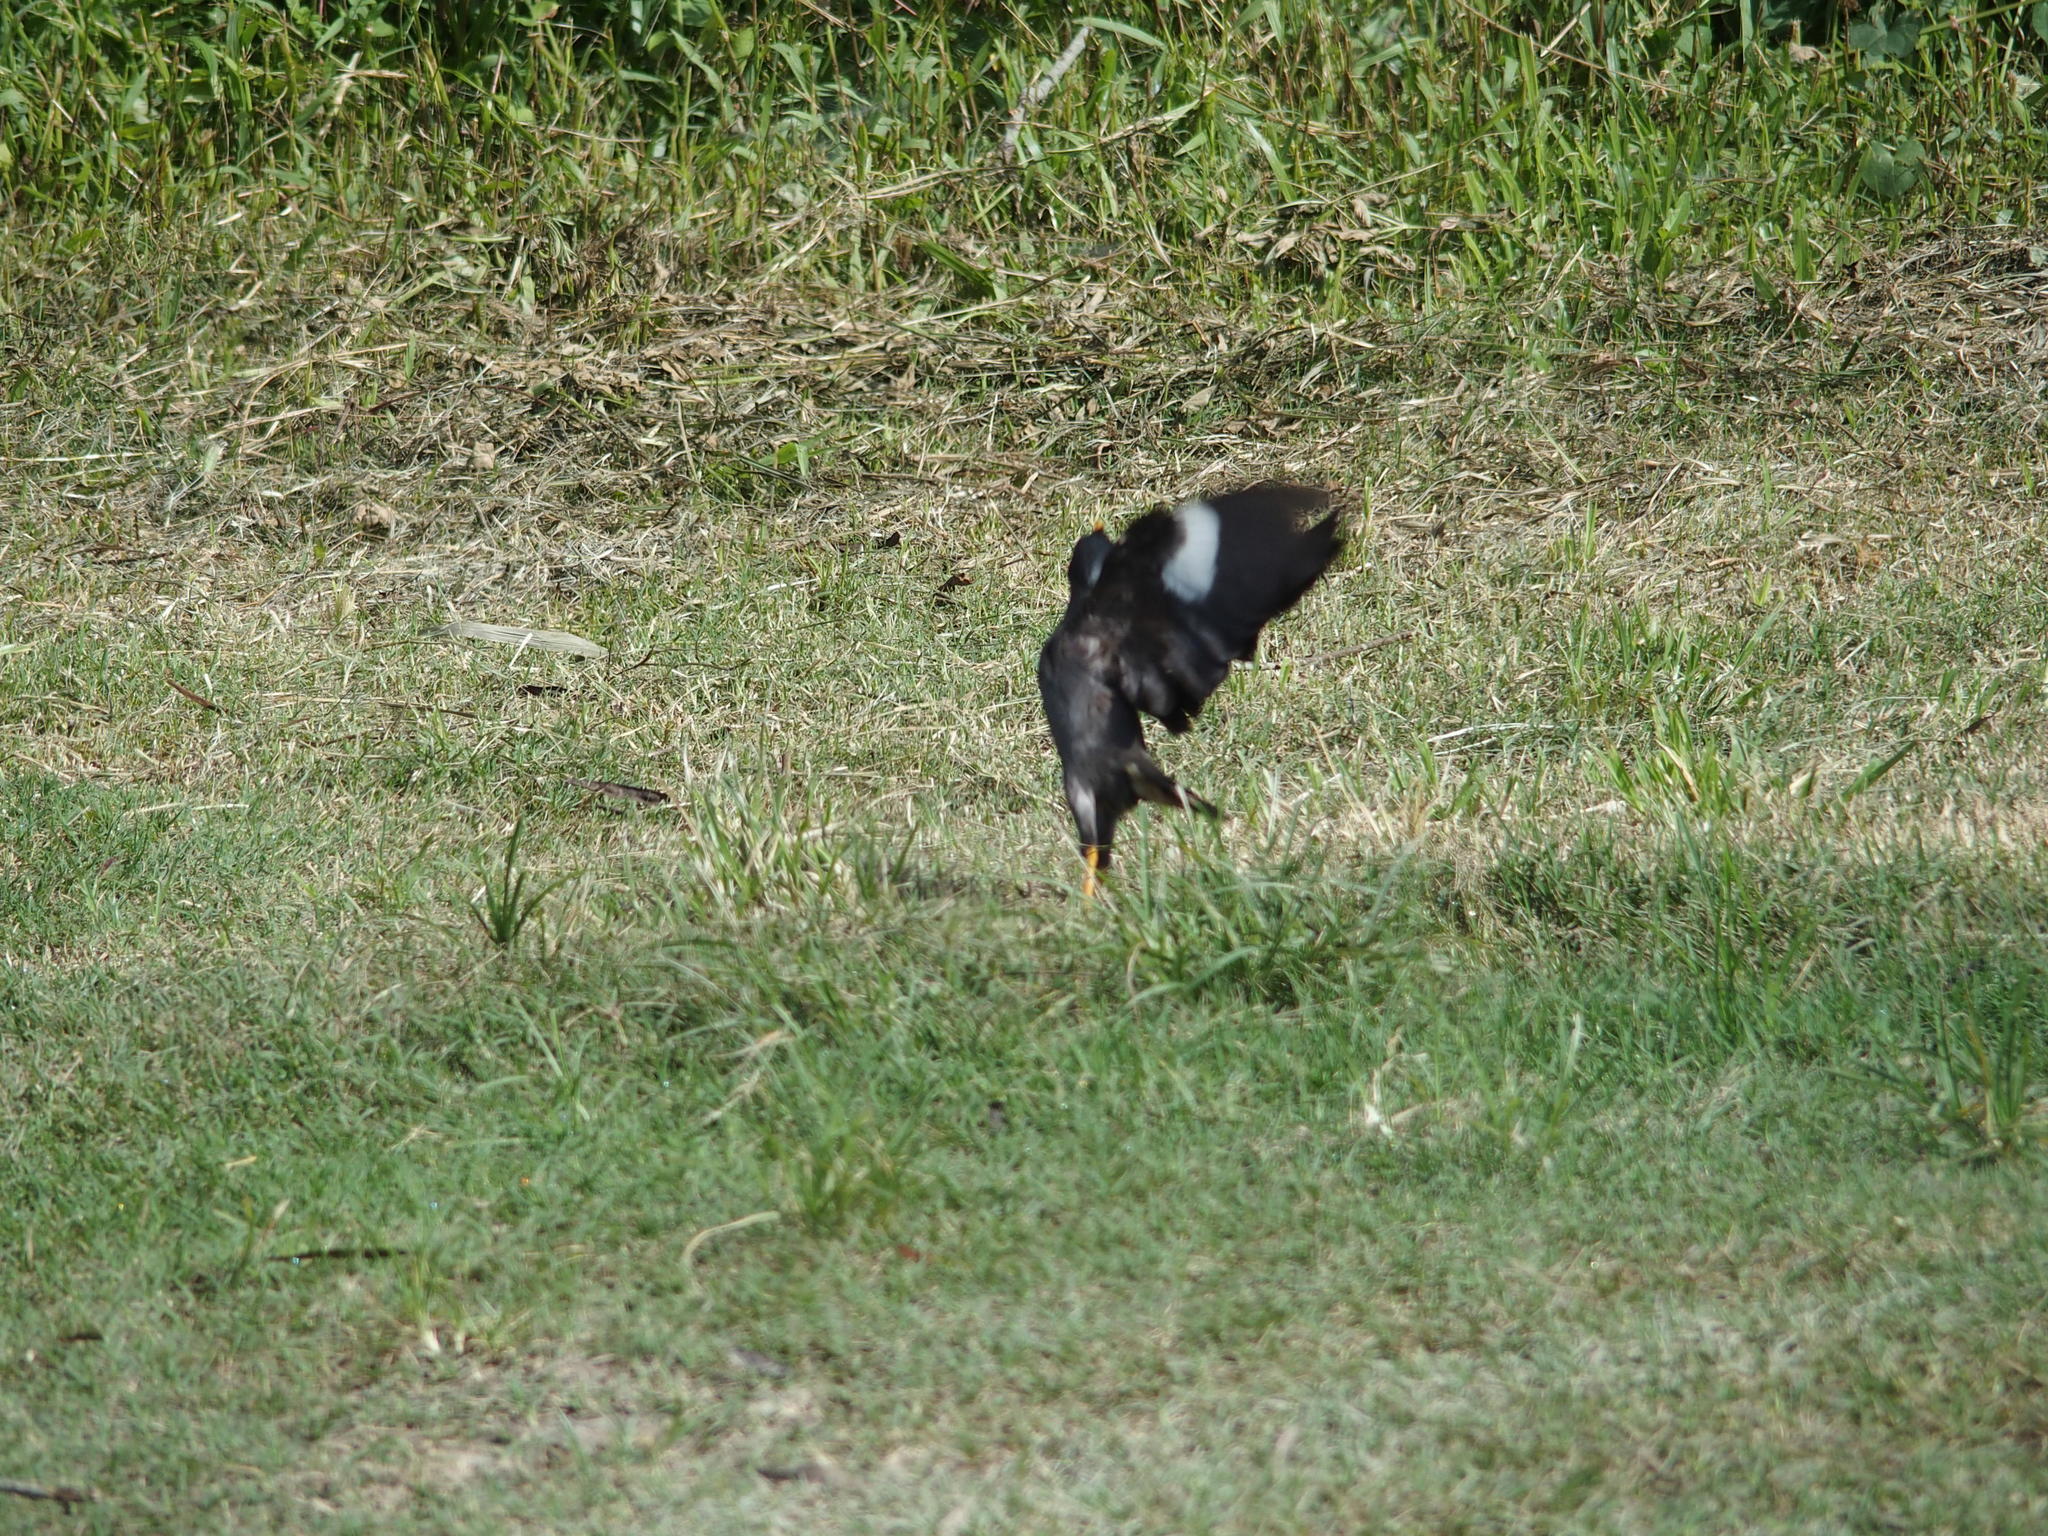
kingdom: Animalia
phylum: Chordata
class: Aves
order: Passeriformes
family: Sturnidae
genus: Acridotheres
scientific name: Acridotheres javanicus
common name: Javan myna
